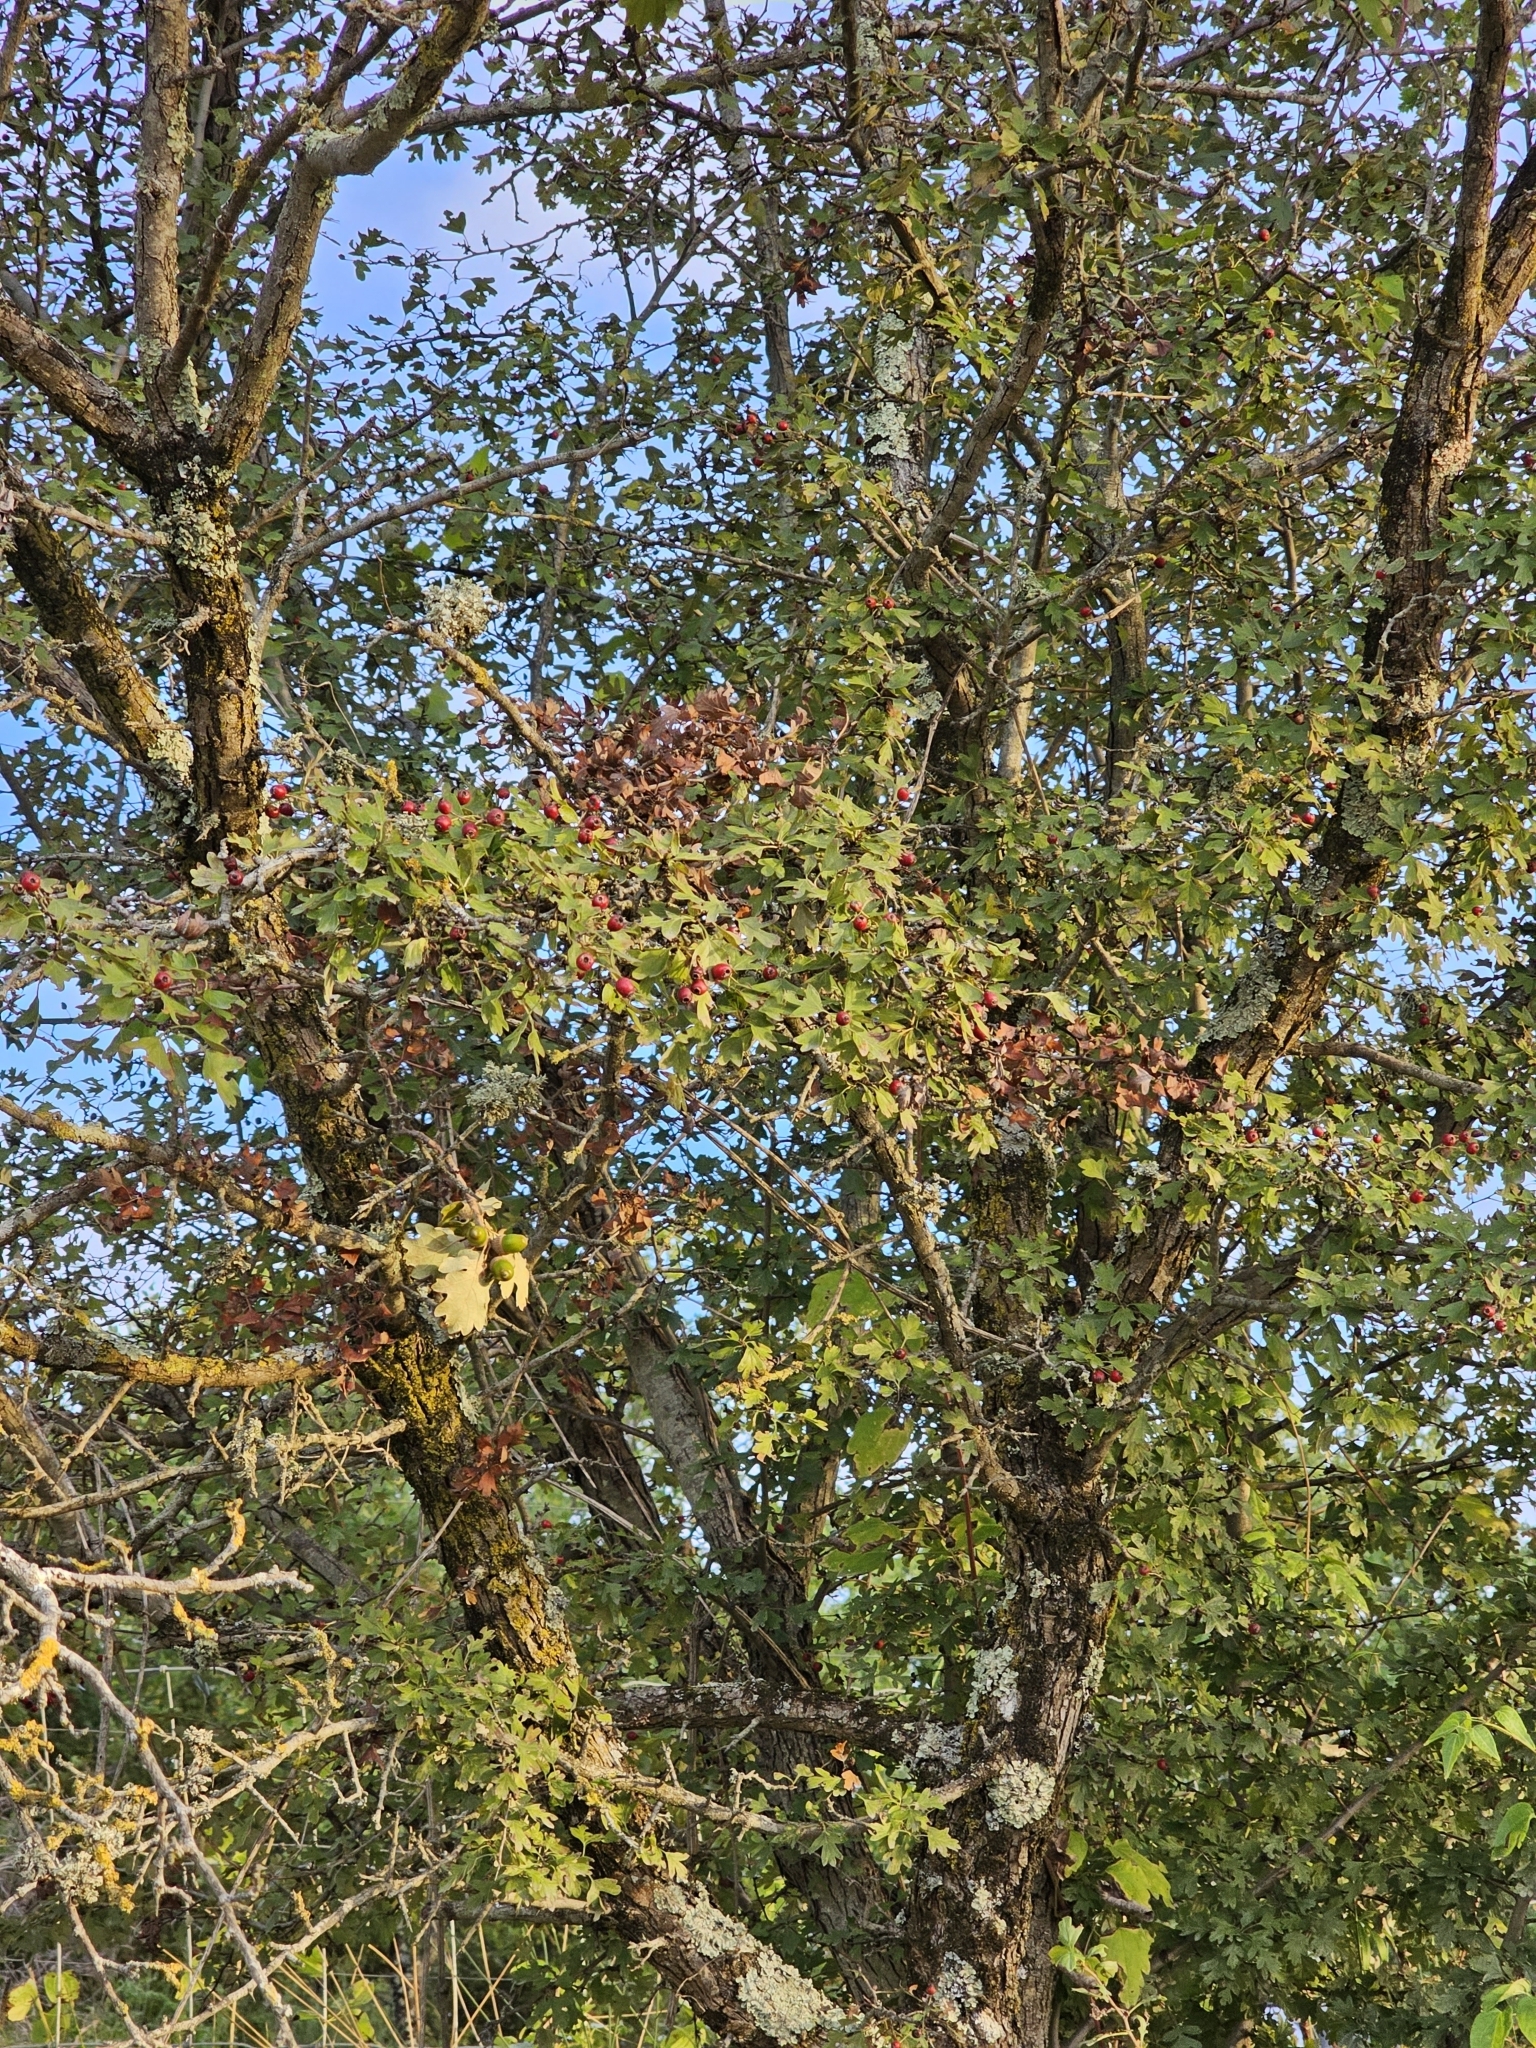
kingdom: Plantae
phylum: Tracheophyta
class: Magnoliopsida
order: Rosales
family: Rosaceae
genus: Crataegus
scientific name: Crataegus monogyna
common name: Hawthorn
